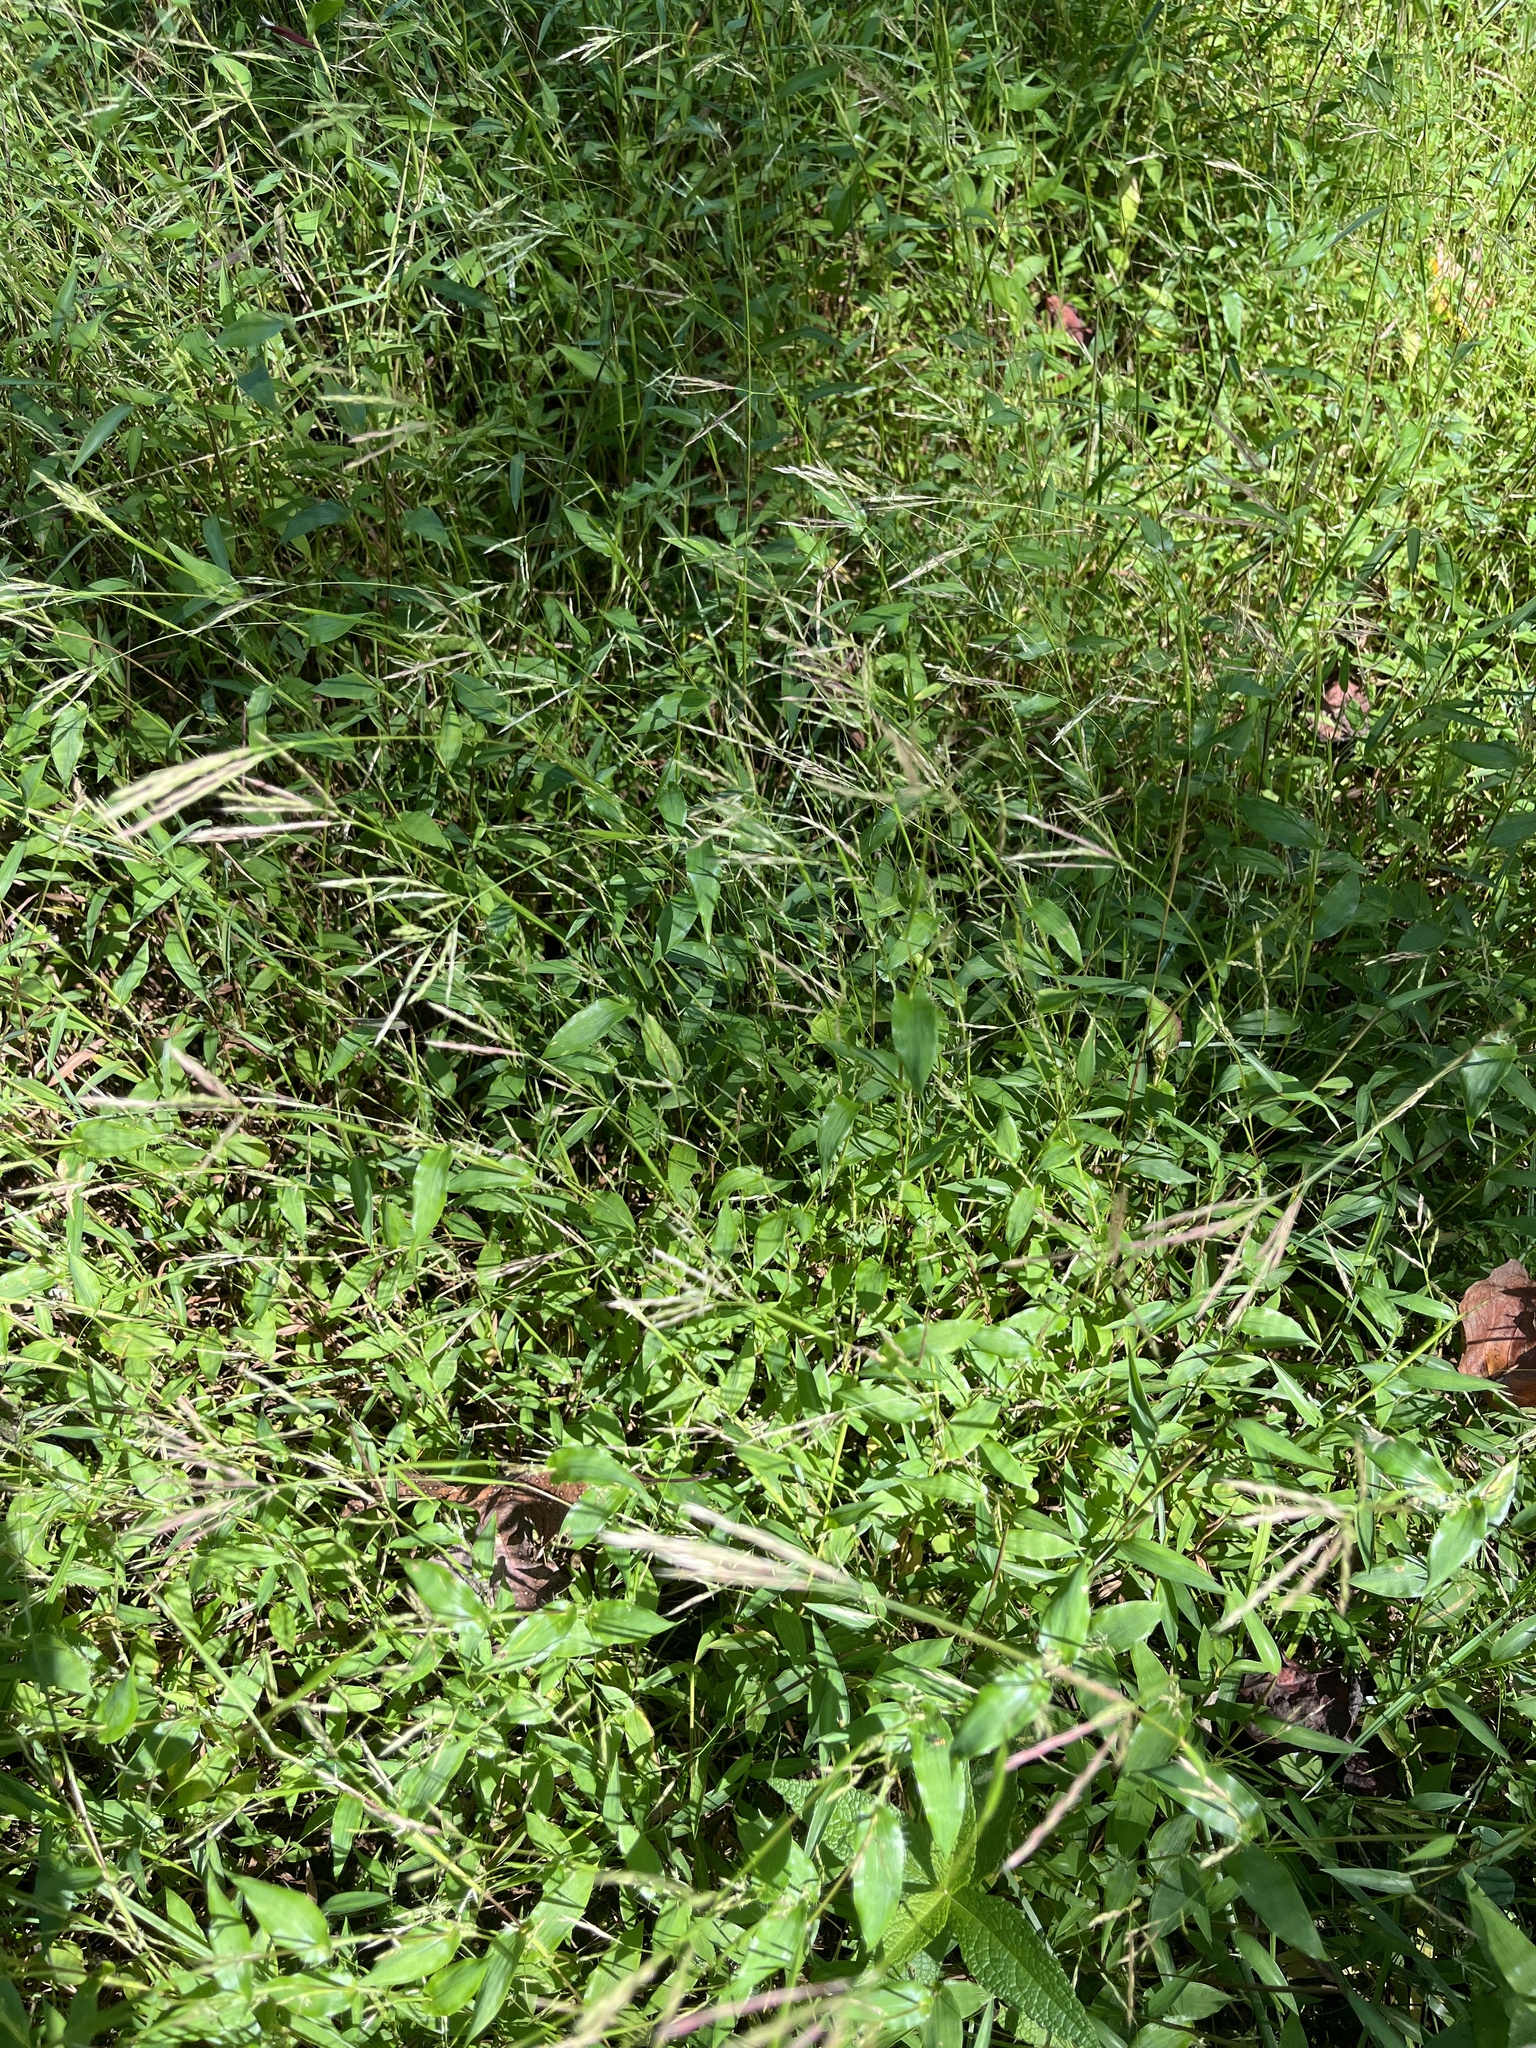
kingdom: Plantae
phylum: Tracheophyta
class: Liliopsida
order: Poales
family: Poaceae
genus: Arthraxon
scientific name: Arthraxon hispidus
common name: Small carpgrass
